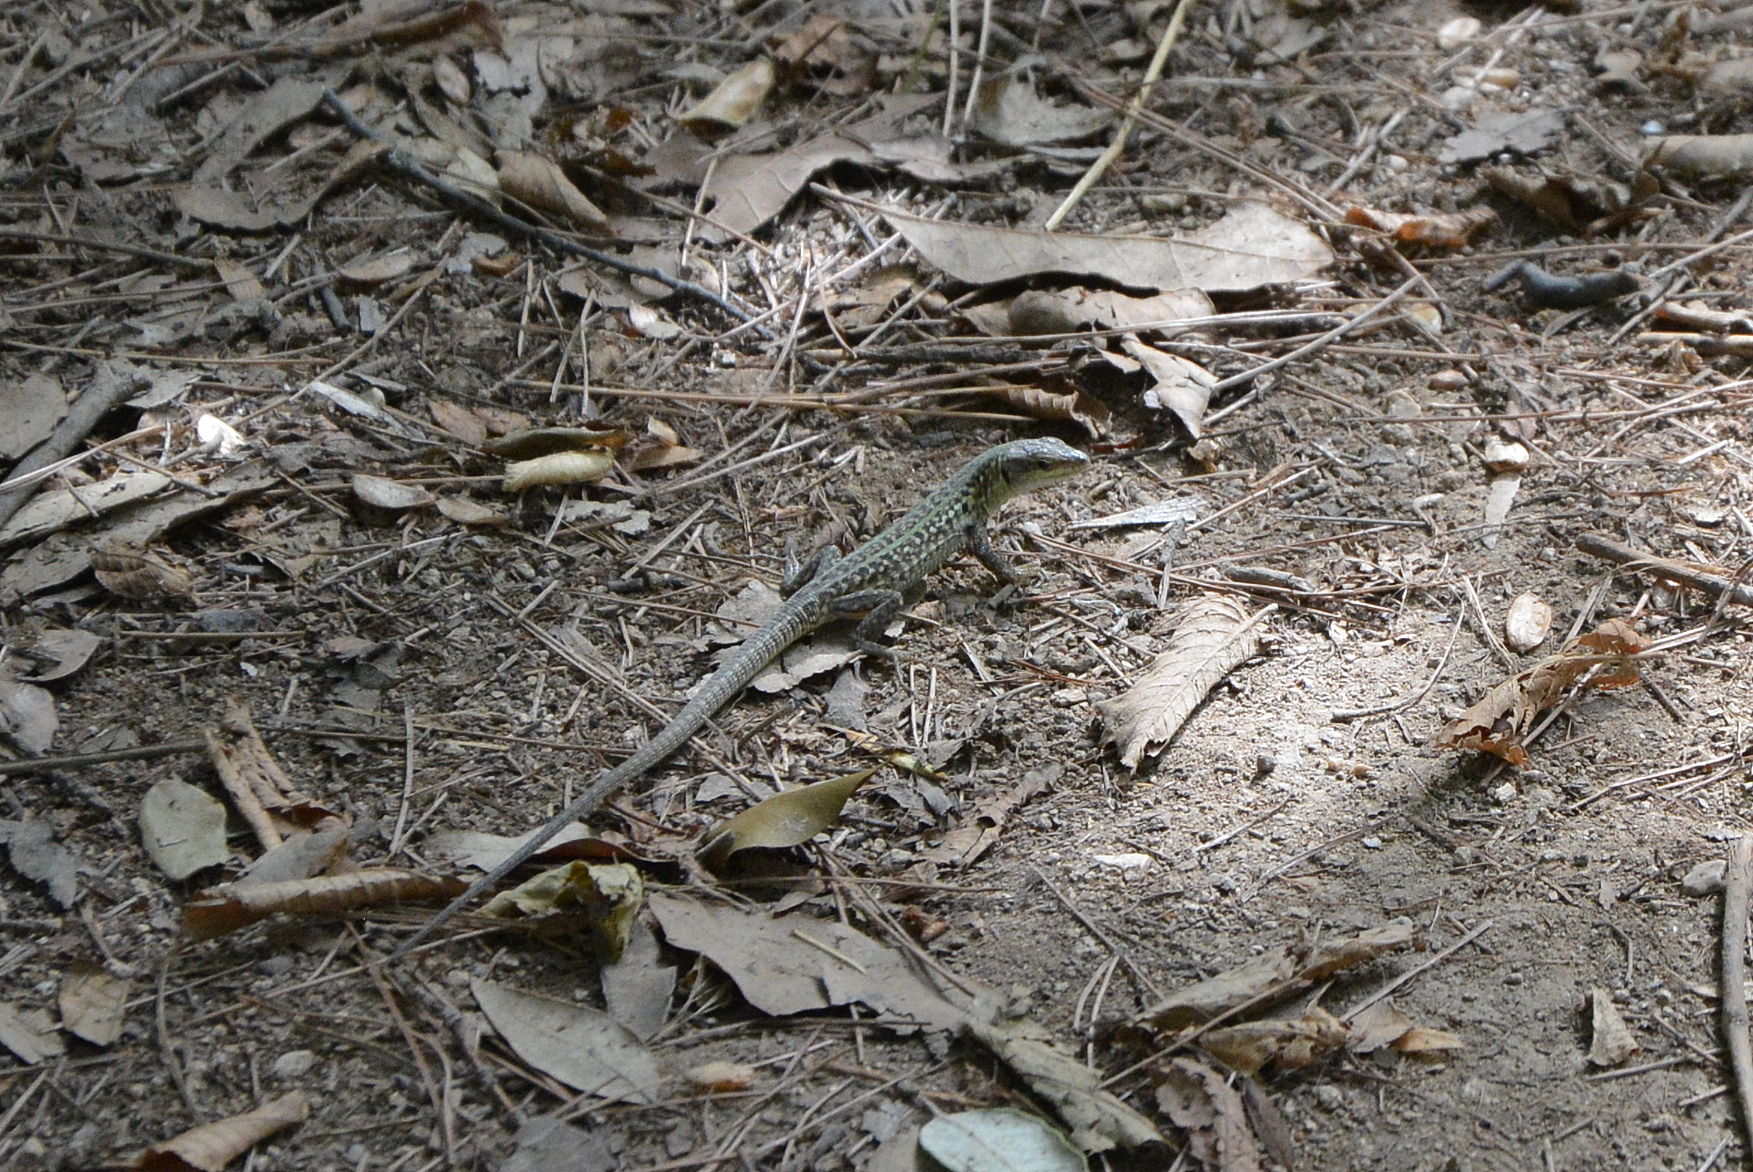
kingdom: Animalia
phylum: Chordata
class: Squamata
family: Lacertidae
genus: Podarcis
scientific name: Podarcis siculus
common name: Italian wall lizard
